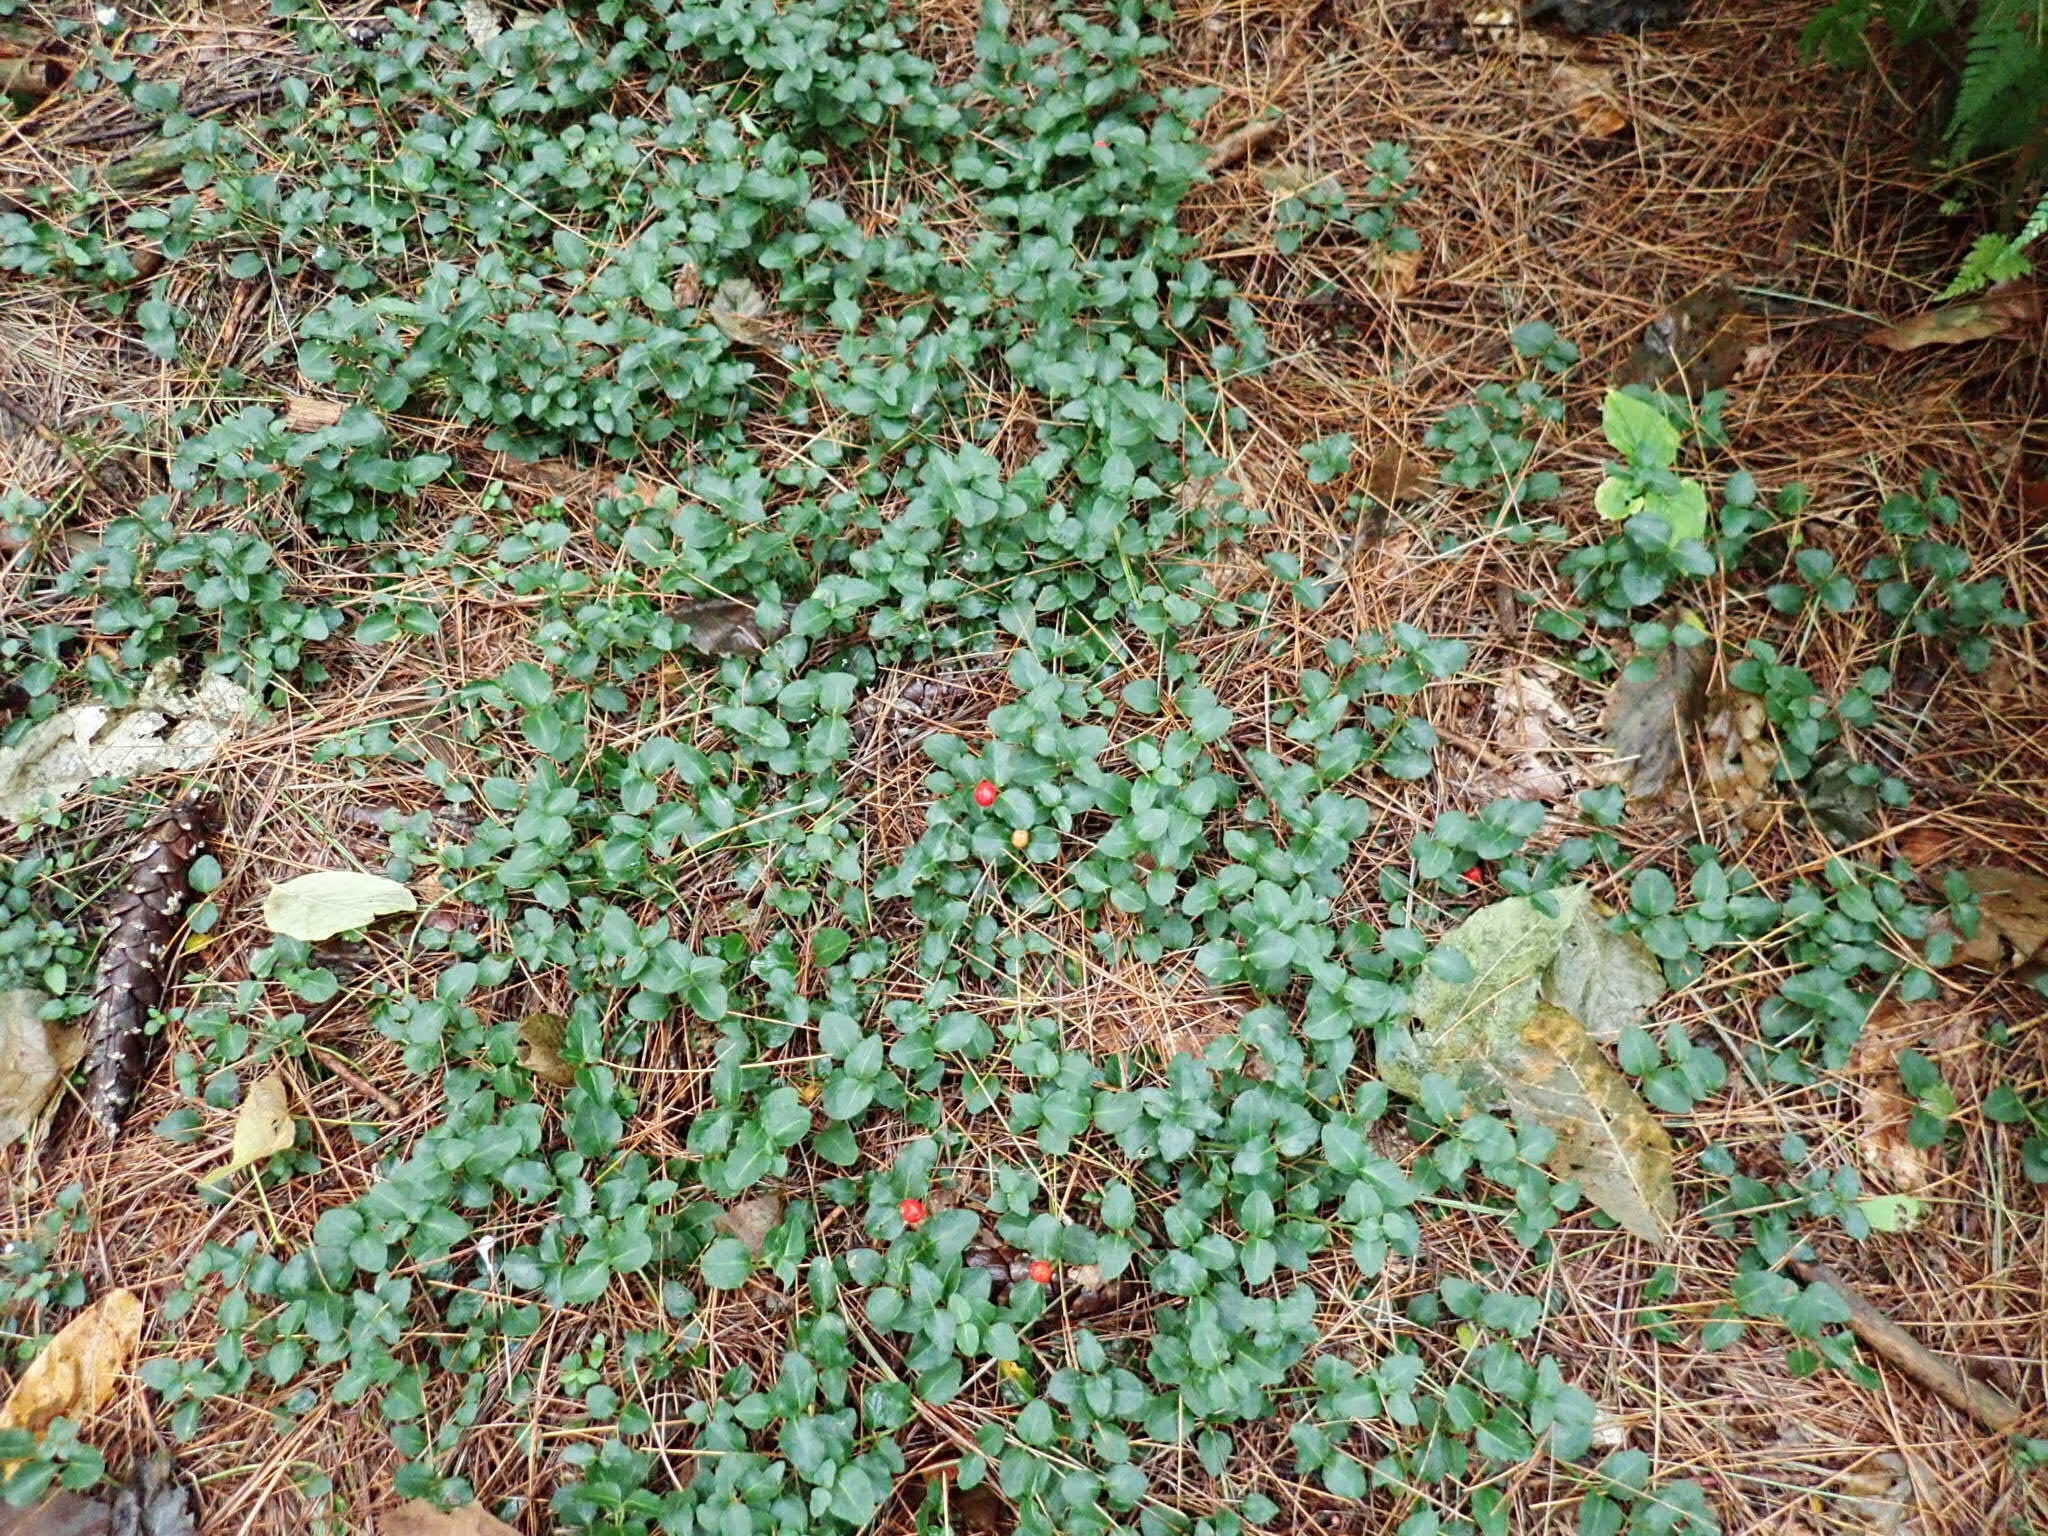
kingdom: Plantae
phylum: Tracheophyta
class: Magnoliopsida
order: Gentianales
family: Rubiaceae
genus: Mitchella
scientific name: Mitchella repens
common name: Partridge-berry
